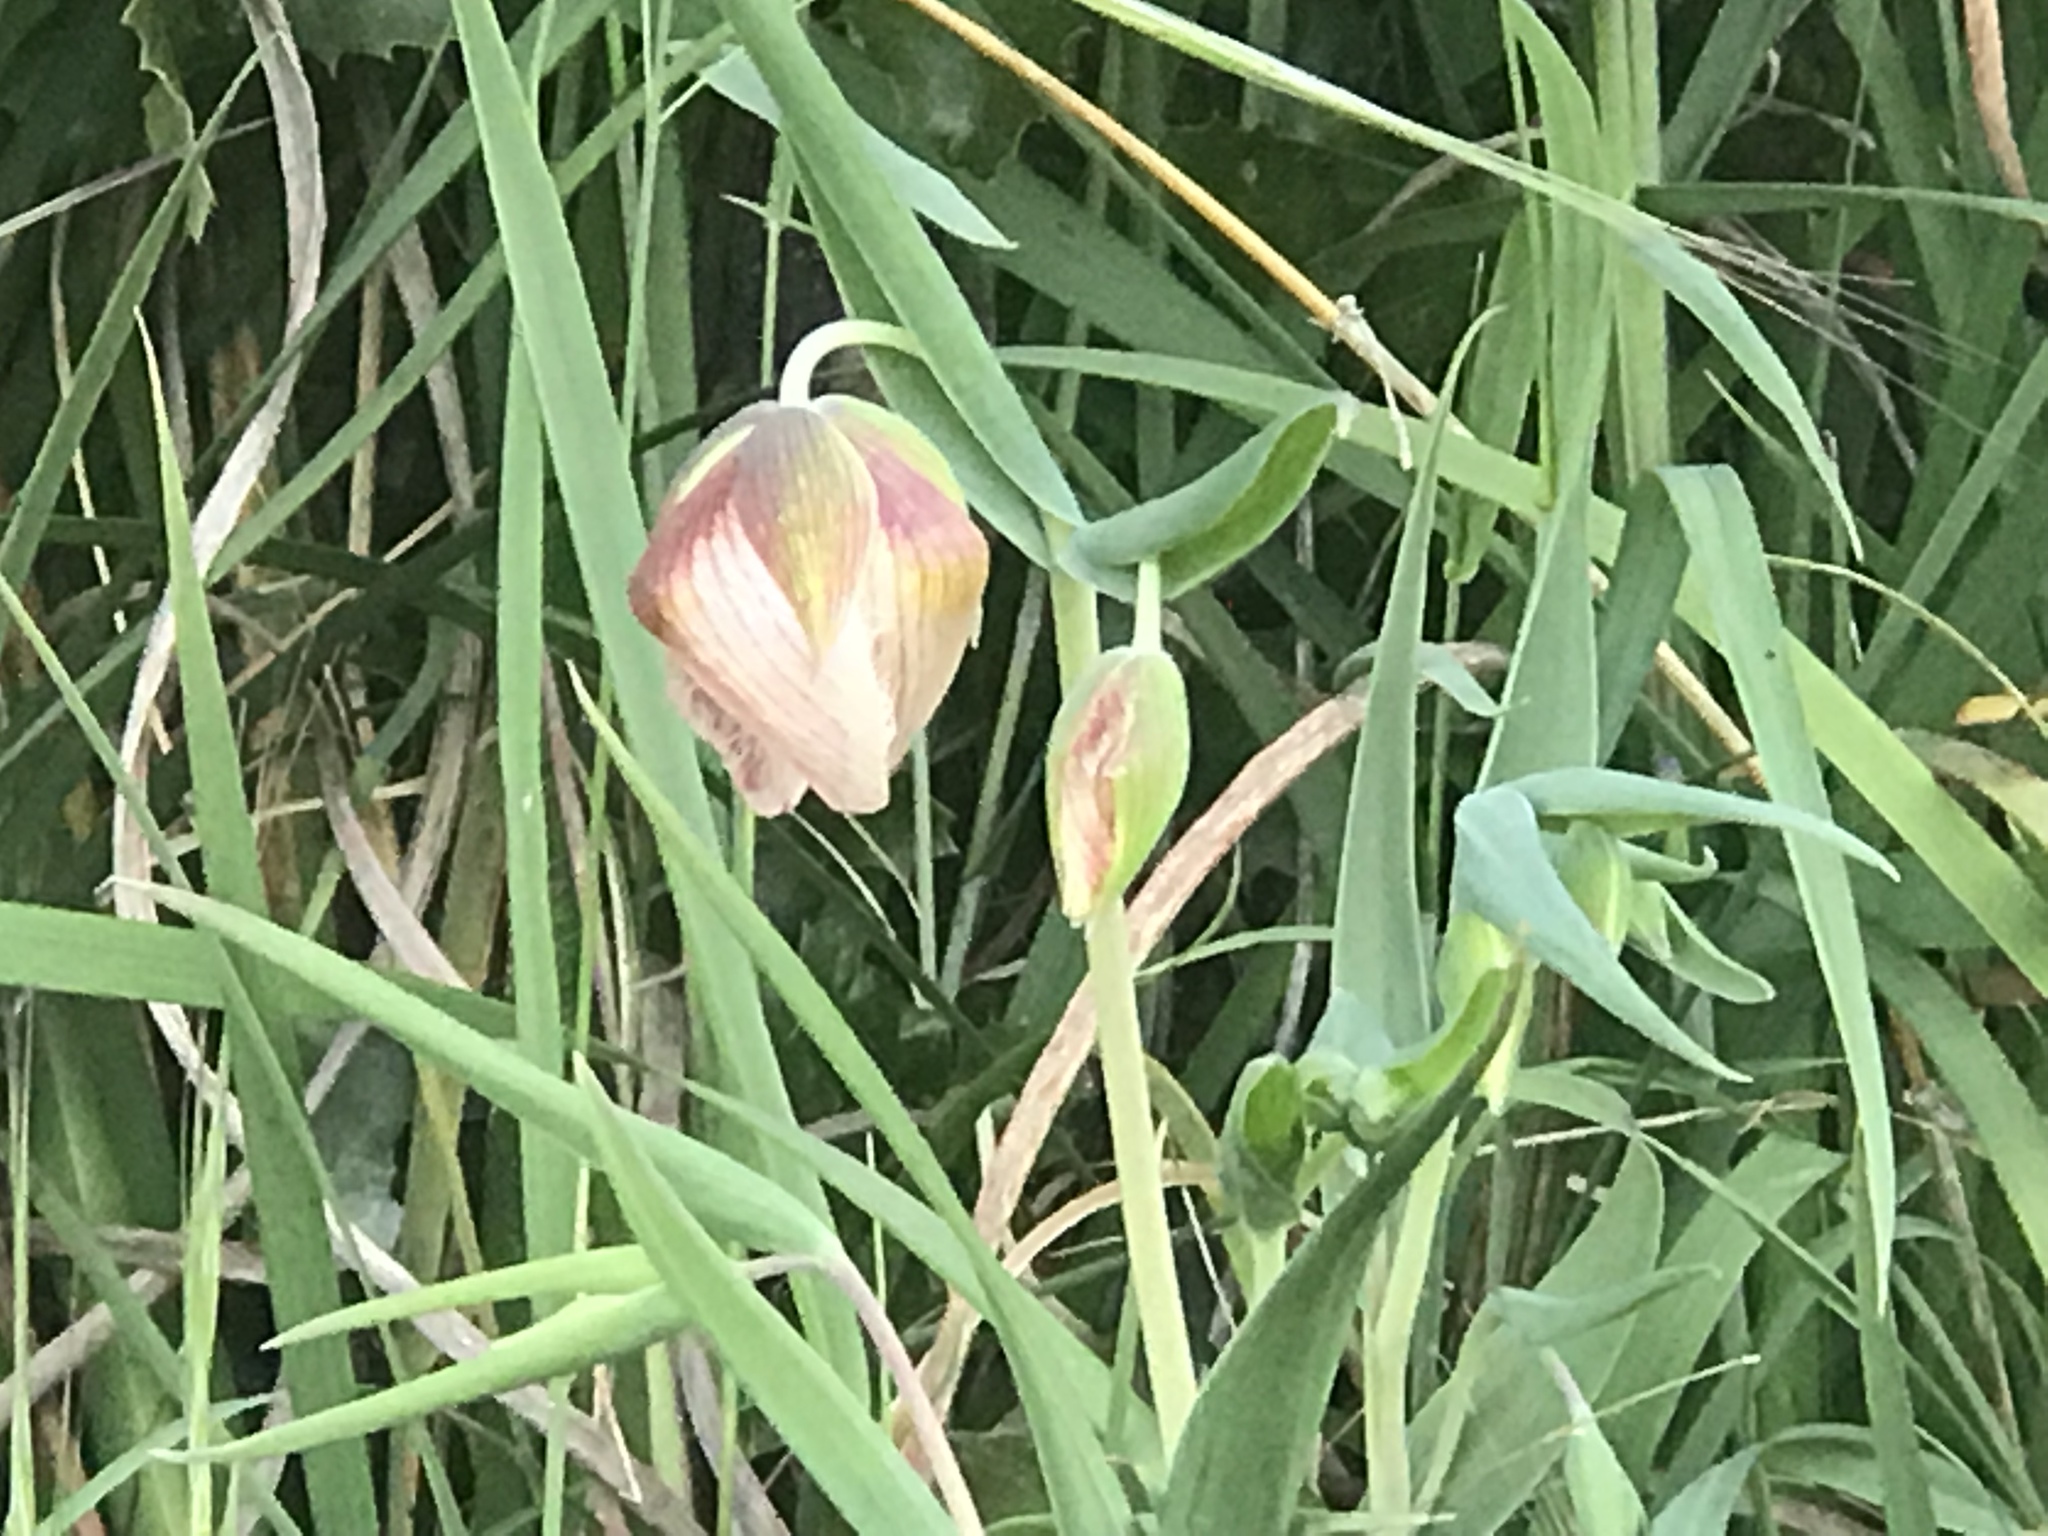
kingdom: Plantae
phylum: Tracheophyta
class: Liliopsida
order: Liliales
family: Liliaceae
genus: Calochortus
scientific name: Calochortus albus
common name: Fairy-lantern
